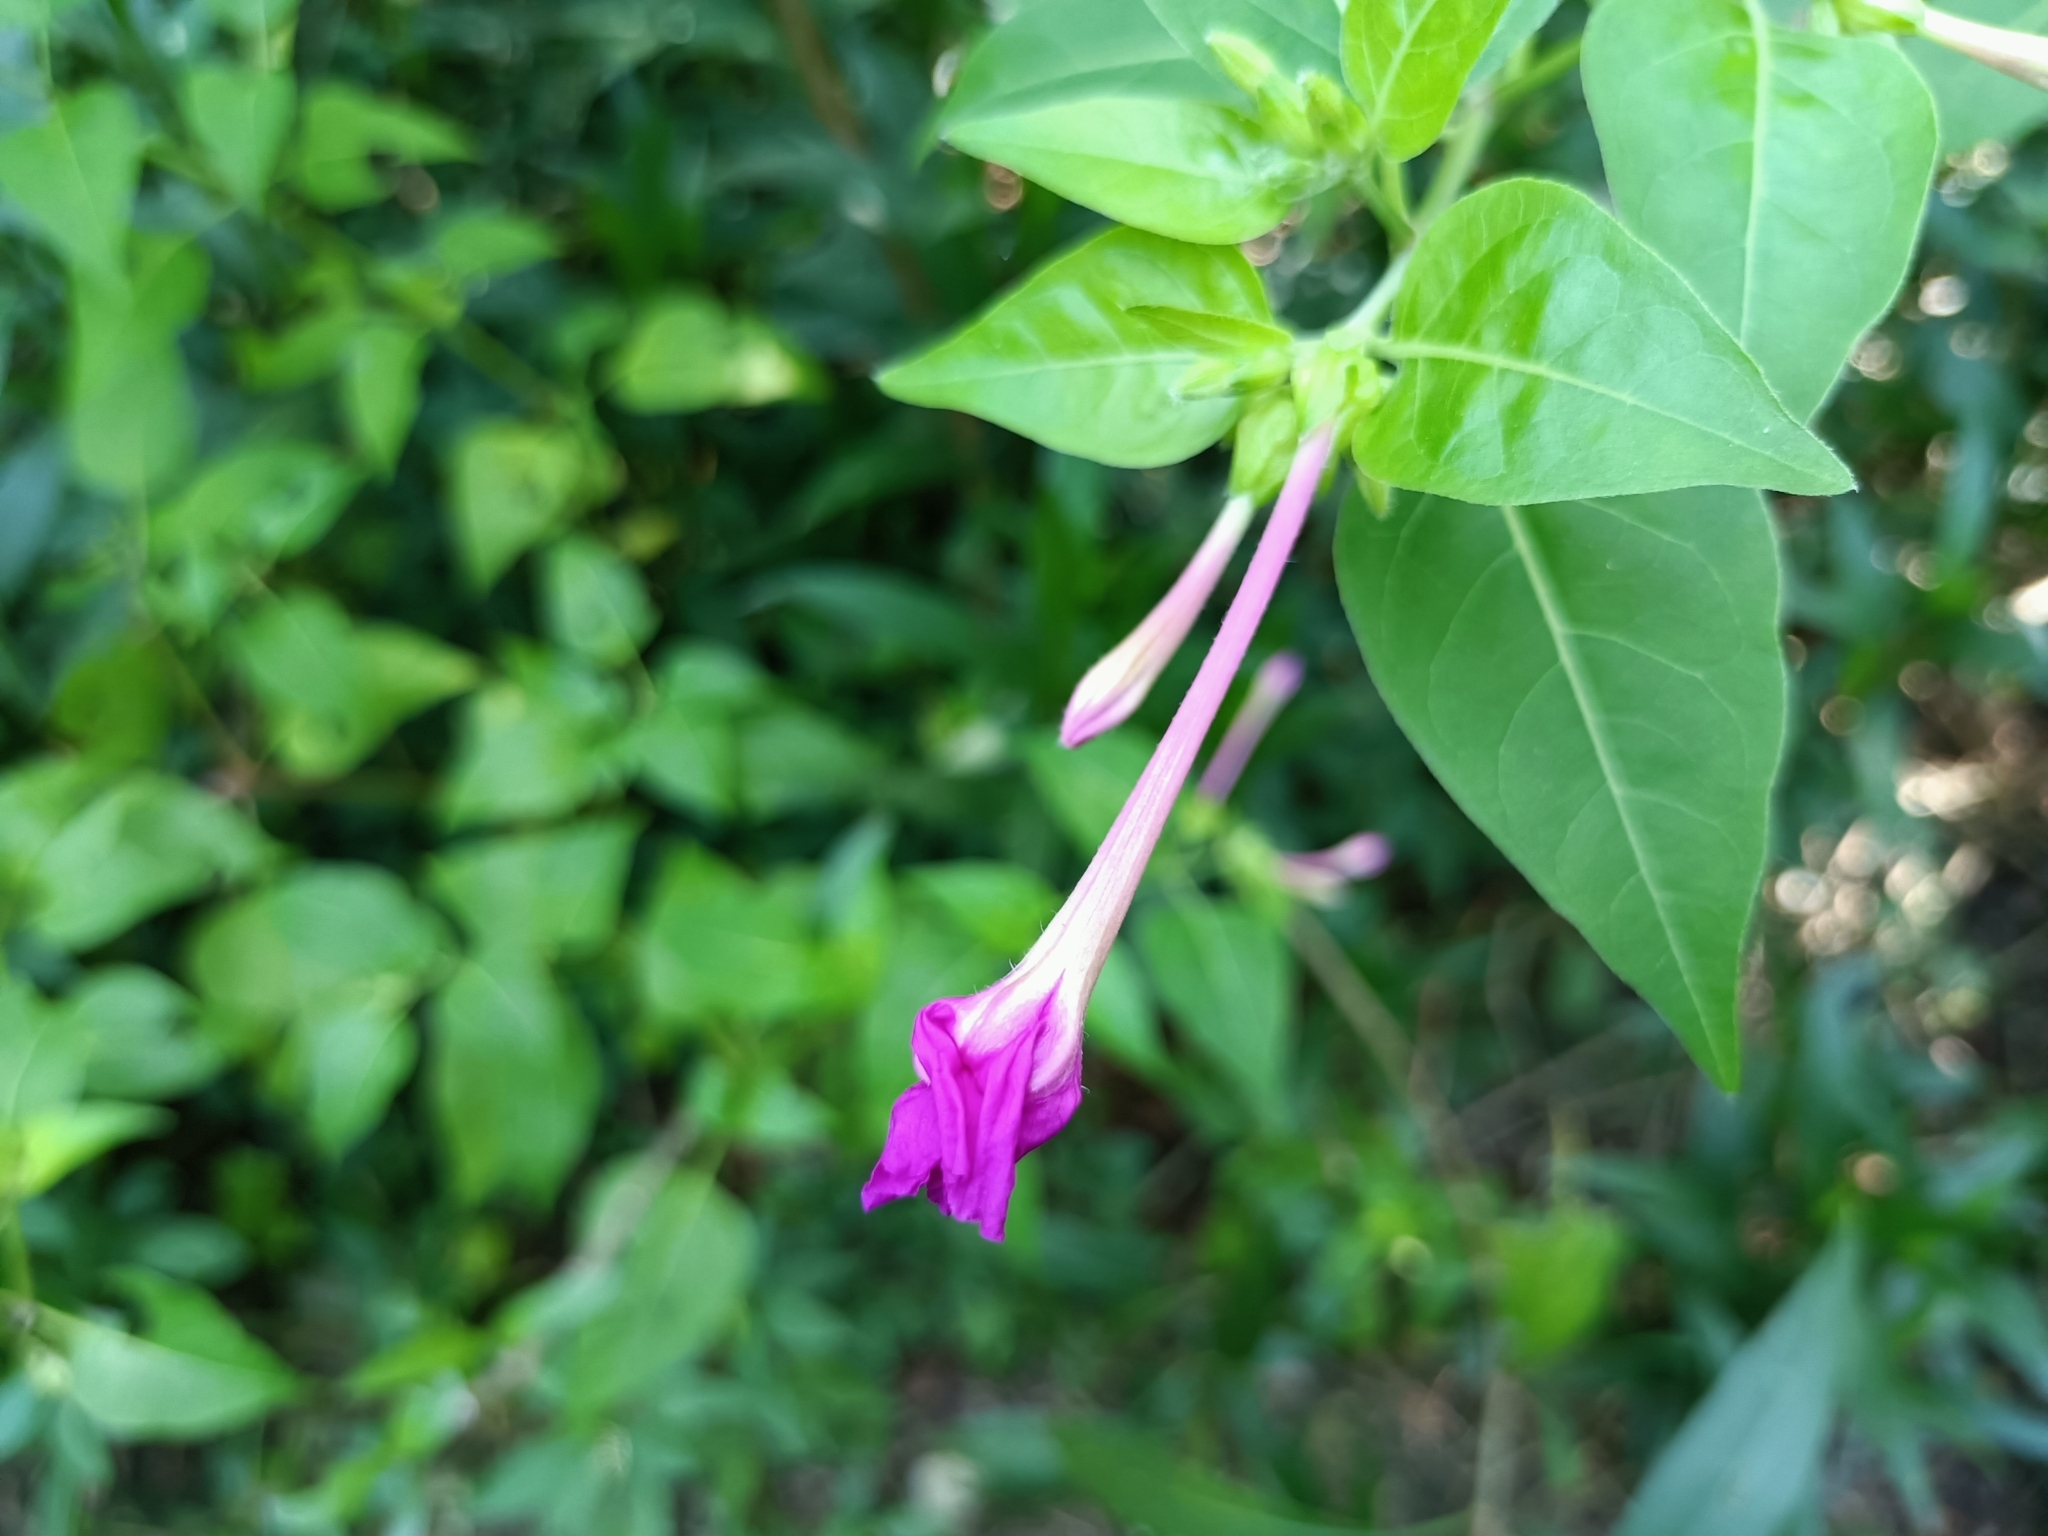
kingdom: Plantae
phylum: Tracheophyta
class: Magnoliopsida
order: Caryophyllales
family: Nyctaginaceae
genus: Mirabilis
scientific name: Mirabilis jalapa
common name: Marvel-of-peru
